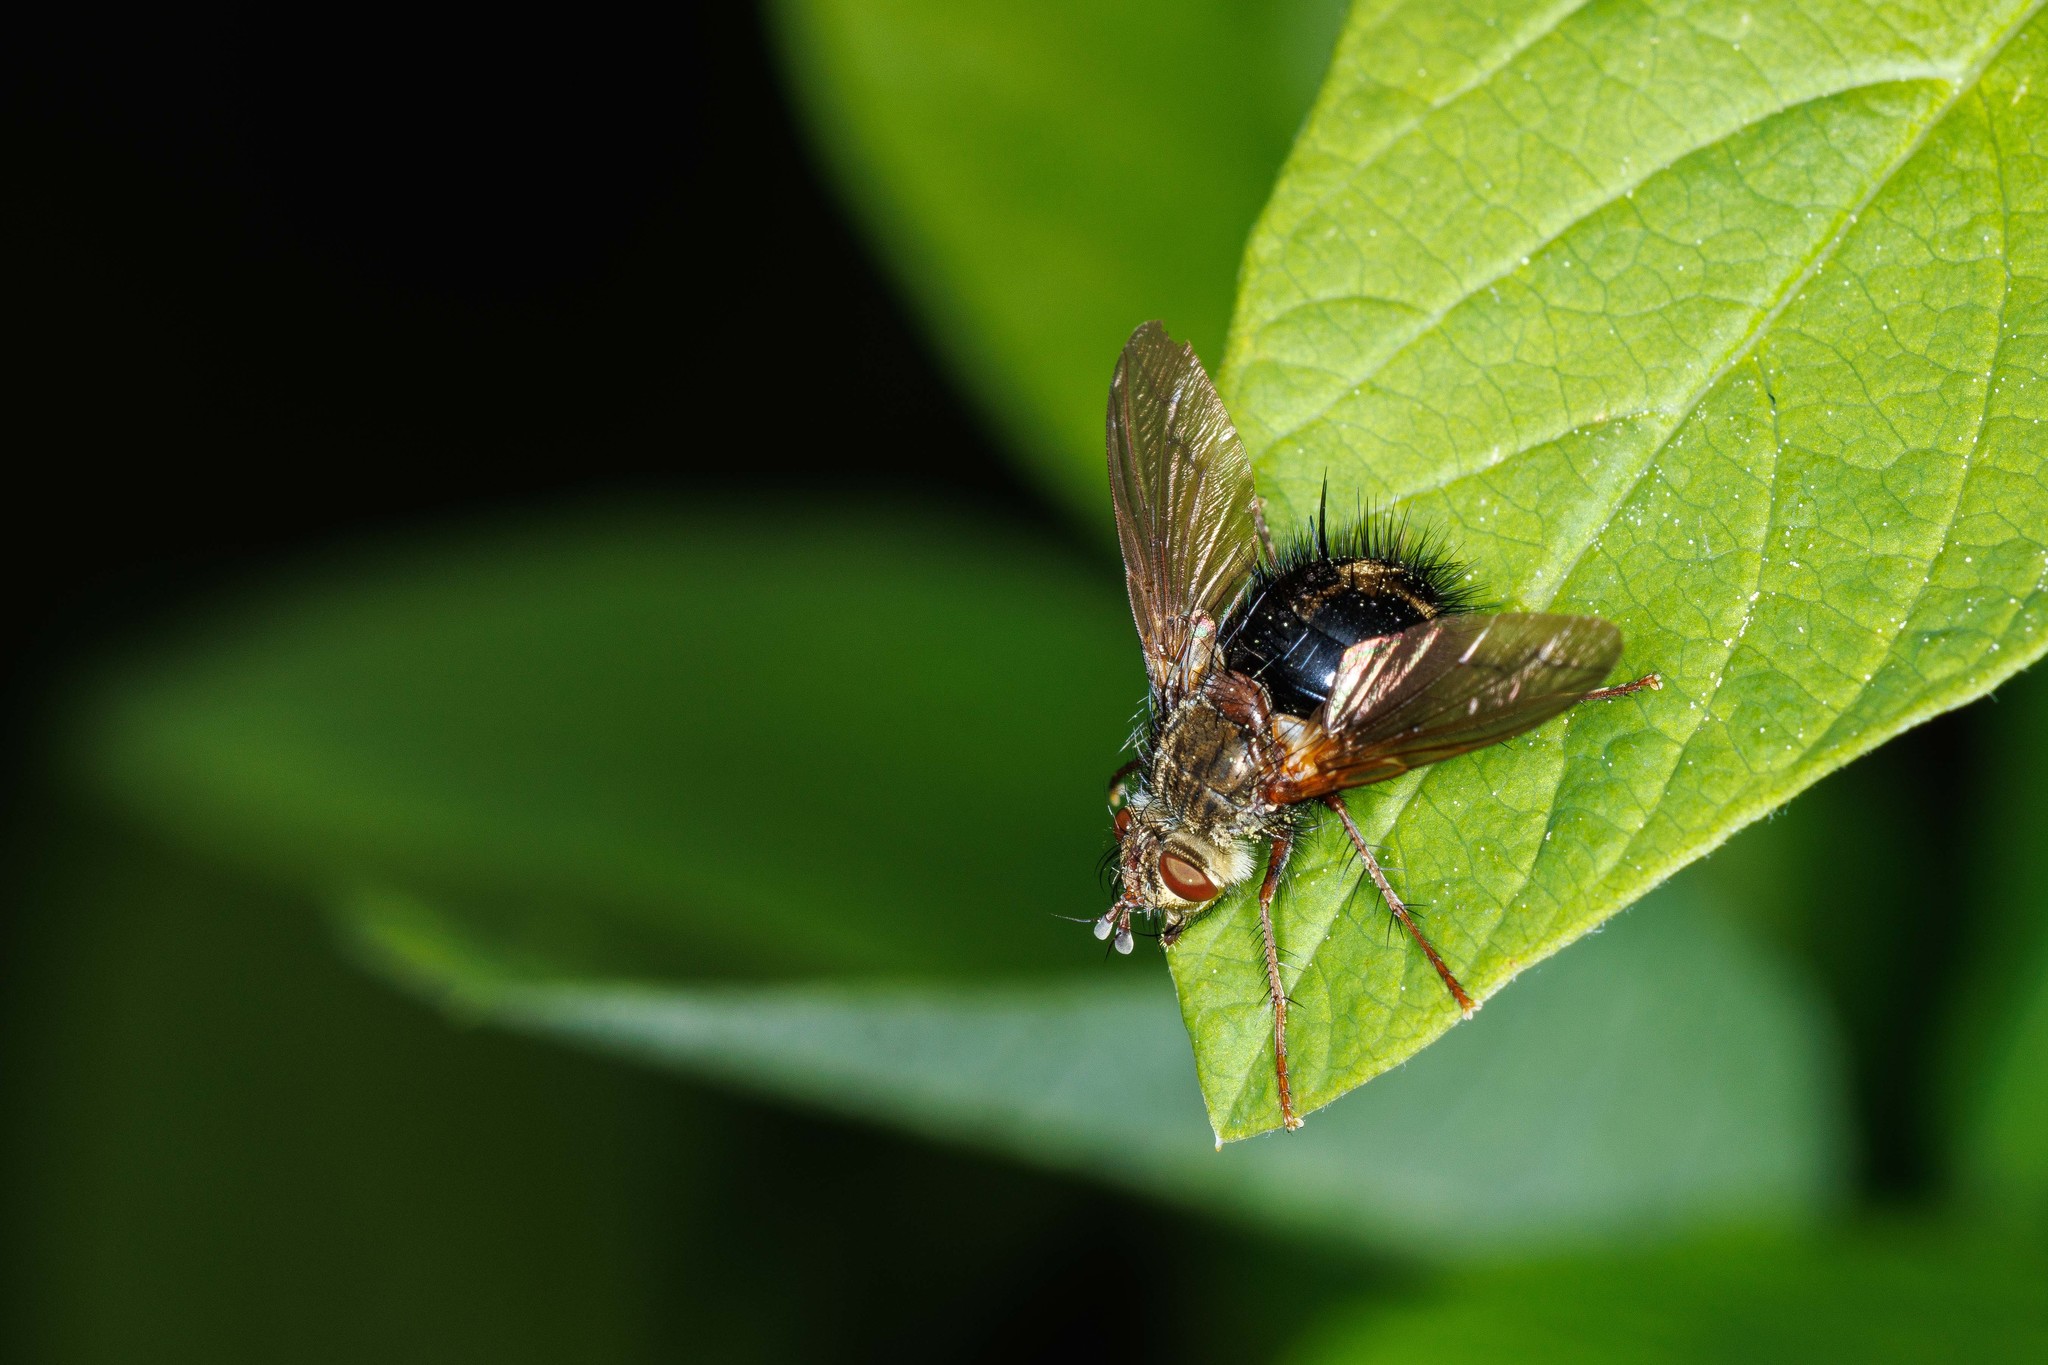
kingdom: Animalia
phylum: Arthropoda
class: Insecta
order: Diptera
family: Tachinidae
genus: Epalpus
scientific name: Epalpus signifer
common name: Early tachinid fly
